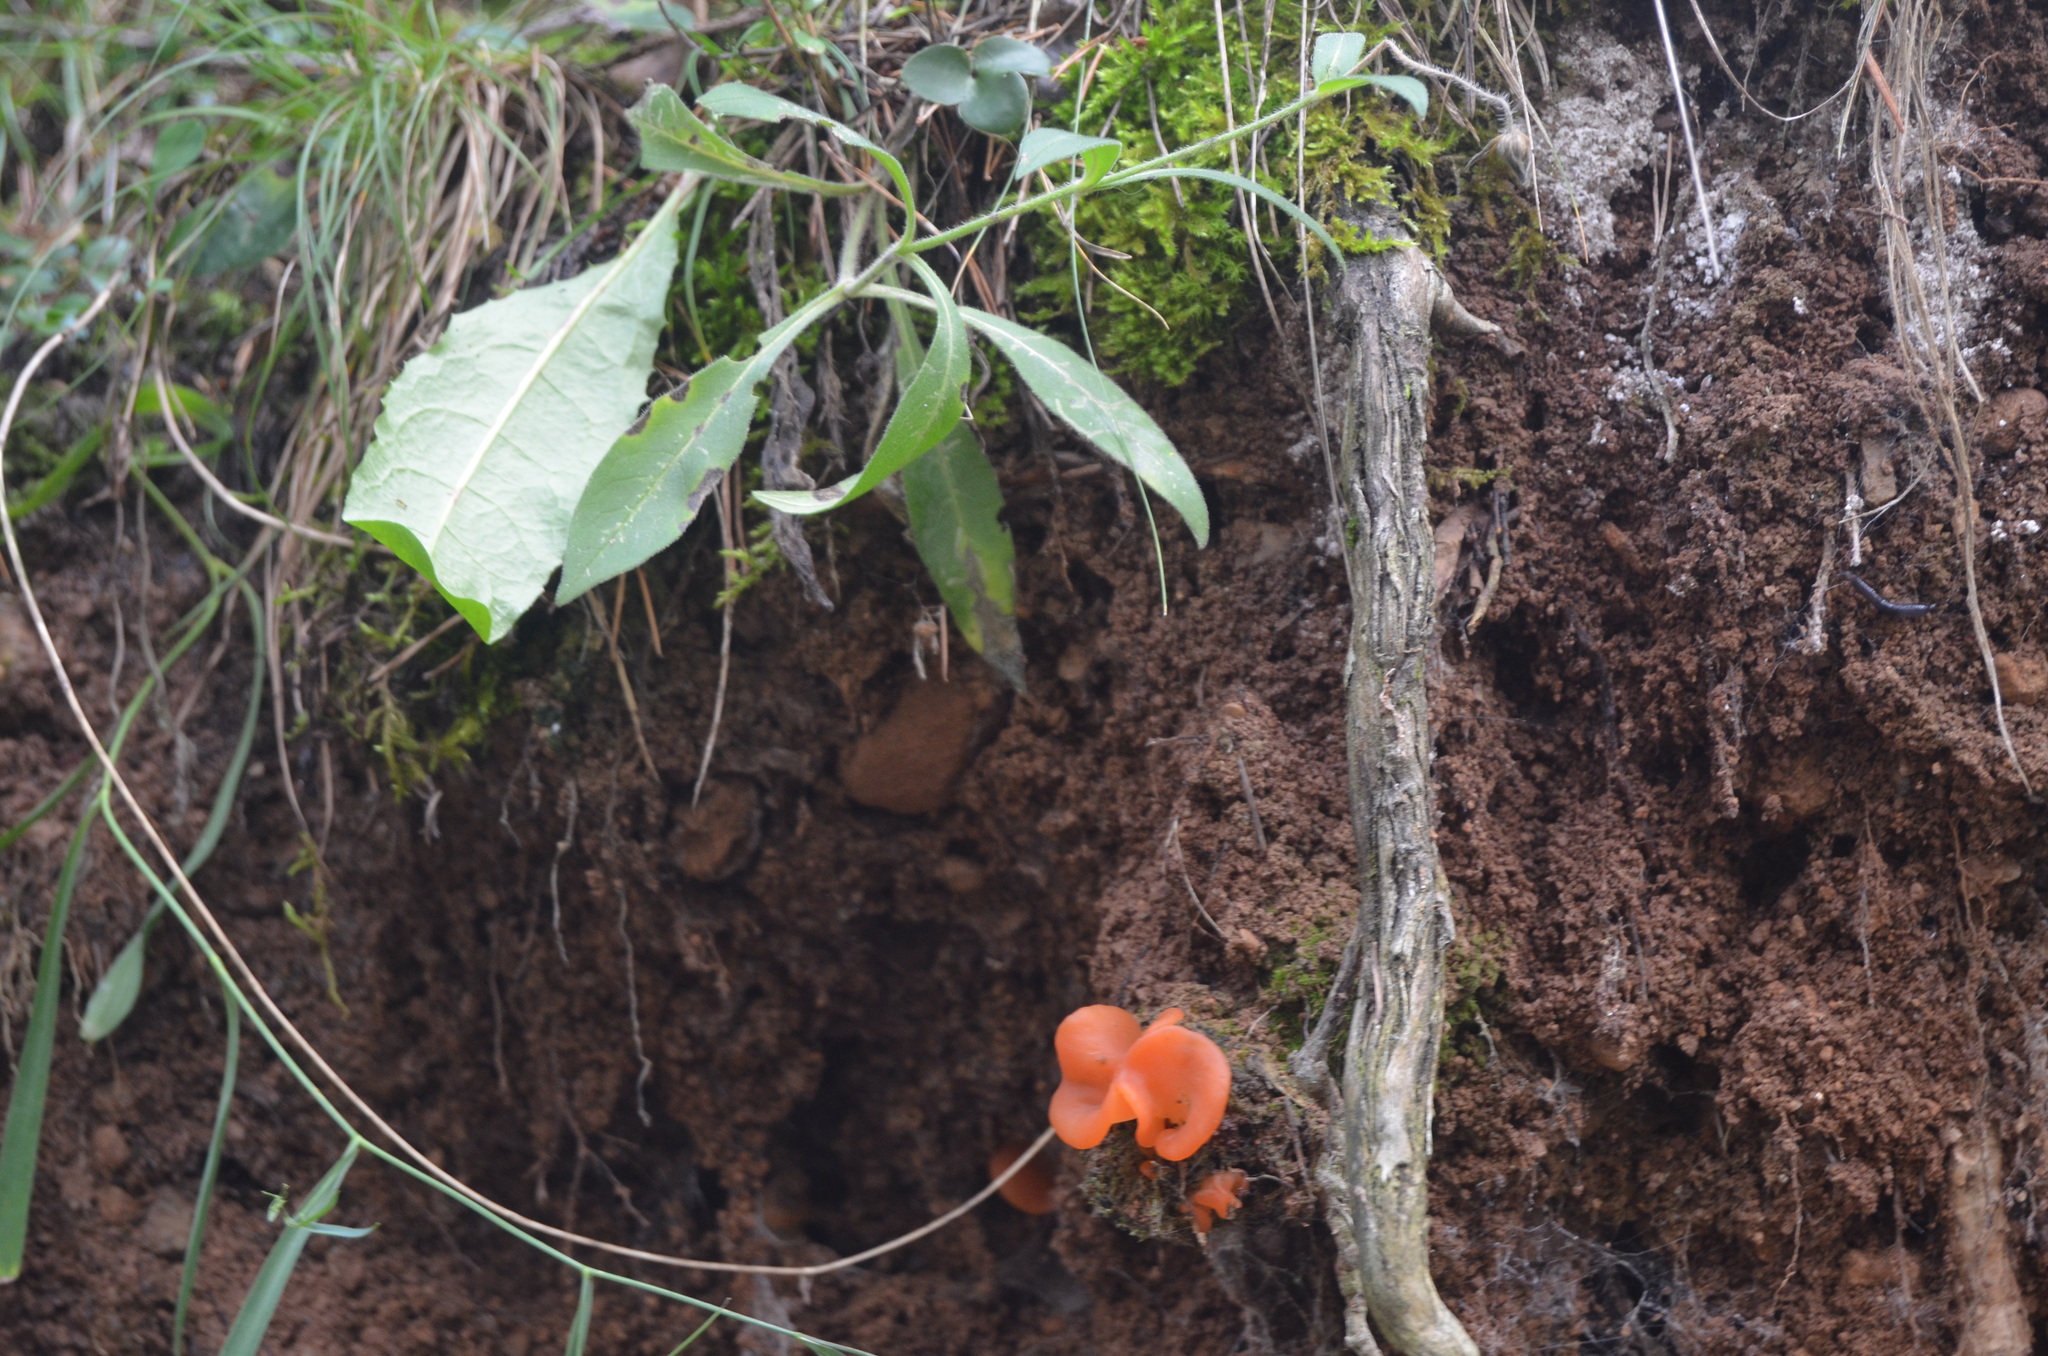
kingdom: Fungi
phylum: Basidiomycota
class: Agaricomycetes
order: Auriculariales
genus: Guepinia
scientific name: Guepinia helvelloides
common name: Salmon salad
